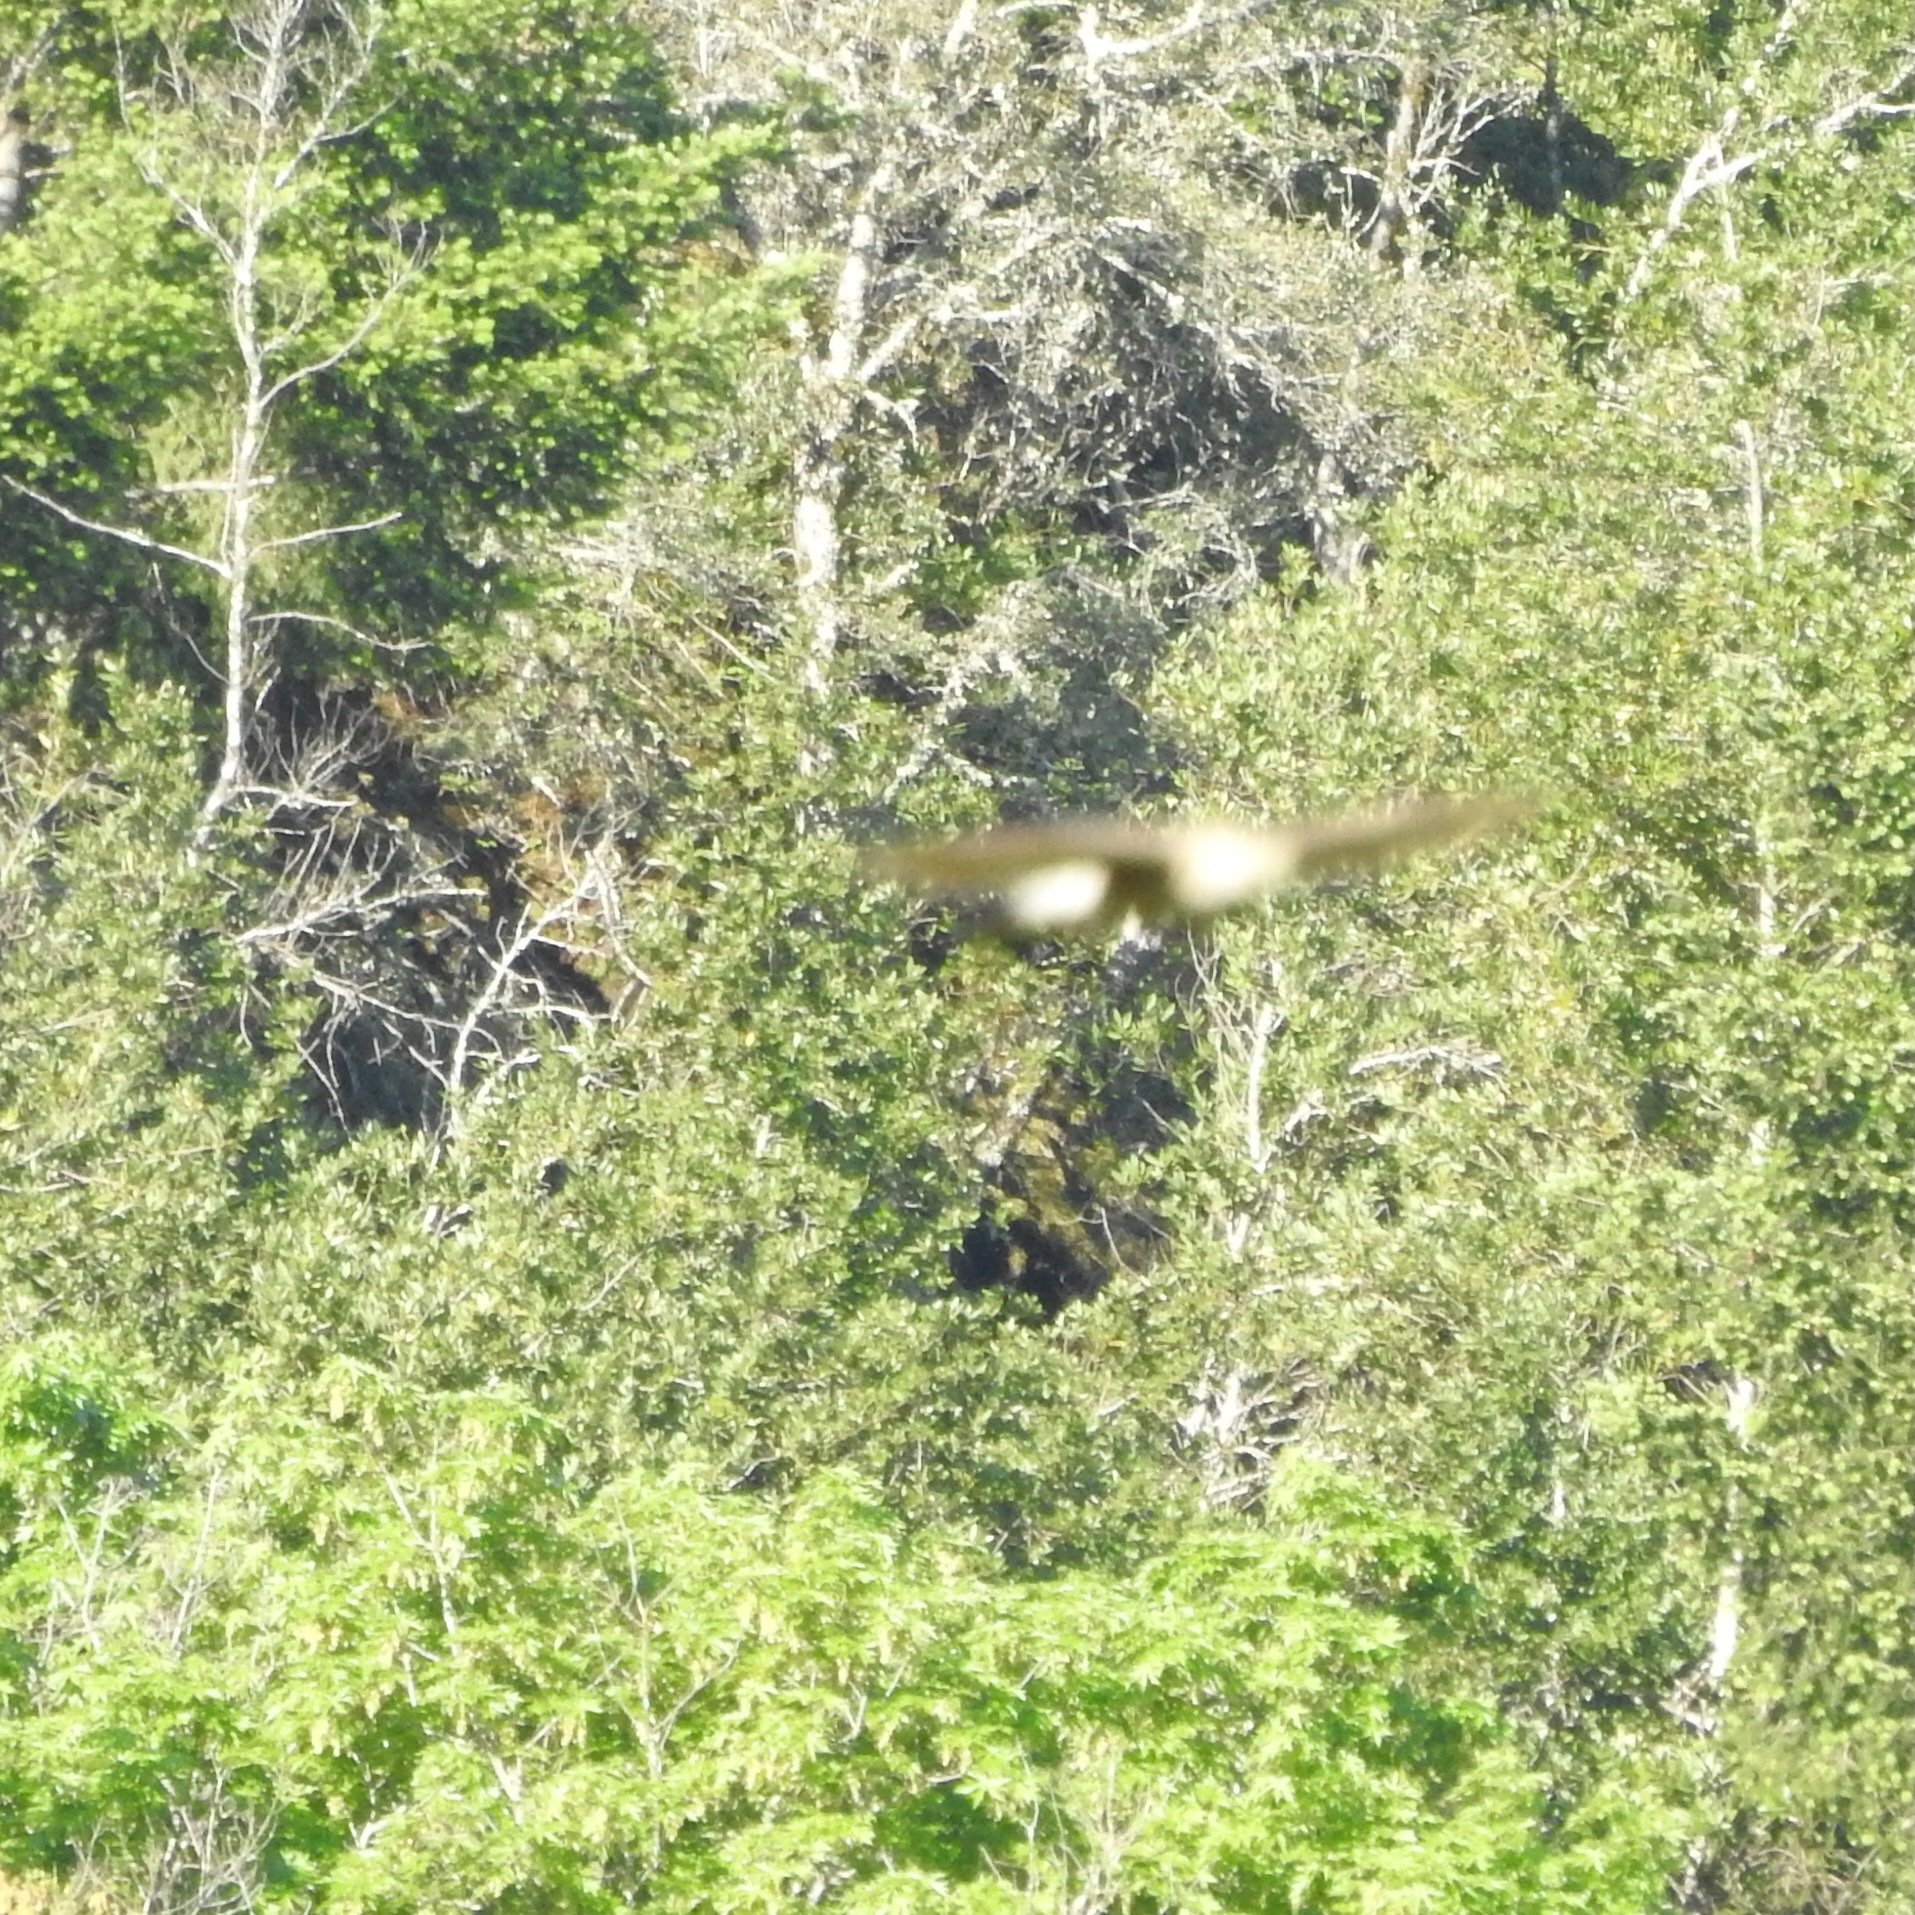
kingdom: Animalia
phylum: Chordata
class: Aves
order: Accipitriformes
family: Accipitridae
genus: Accipiter
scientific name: Accipiter cooperii
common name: Cooper's hawk
